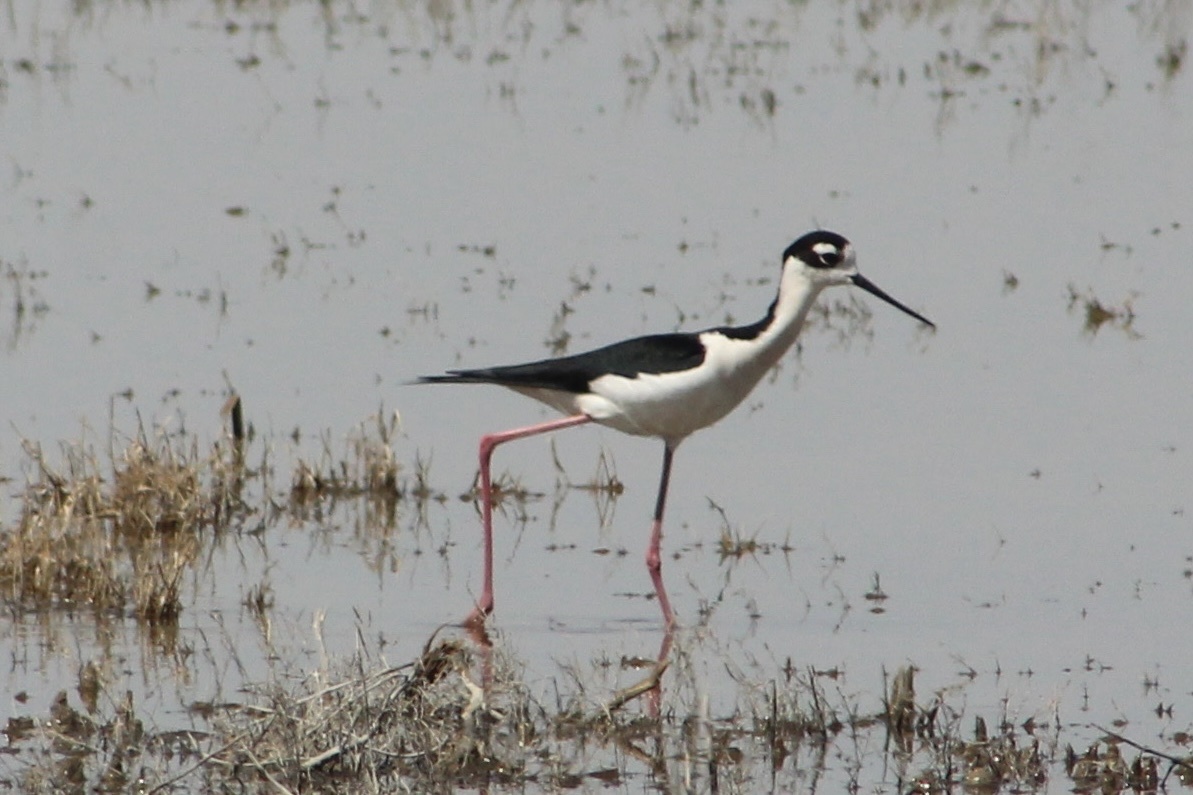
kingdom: Animalia
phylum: Chordata
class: Aves
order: Charadriiformes
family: Recurvirostridae
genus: Himantopus
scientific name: Himantopus mexicanus
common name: Black-necked stilt
